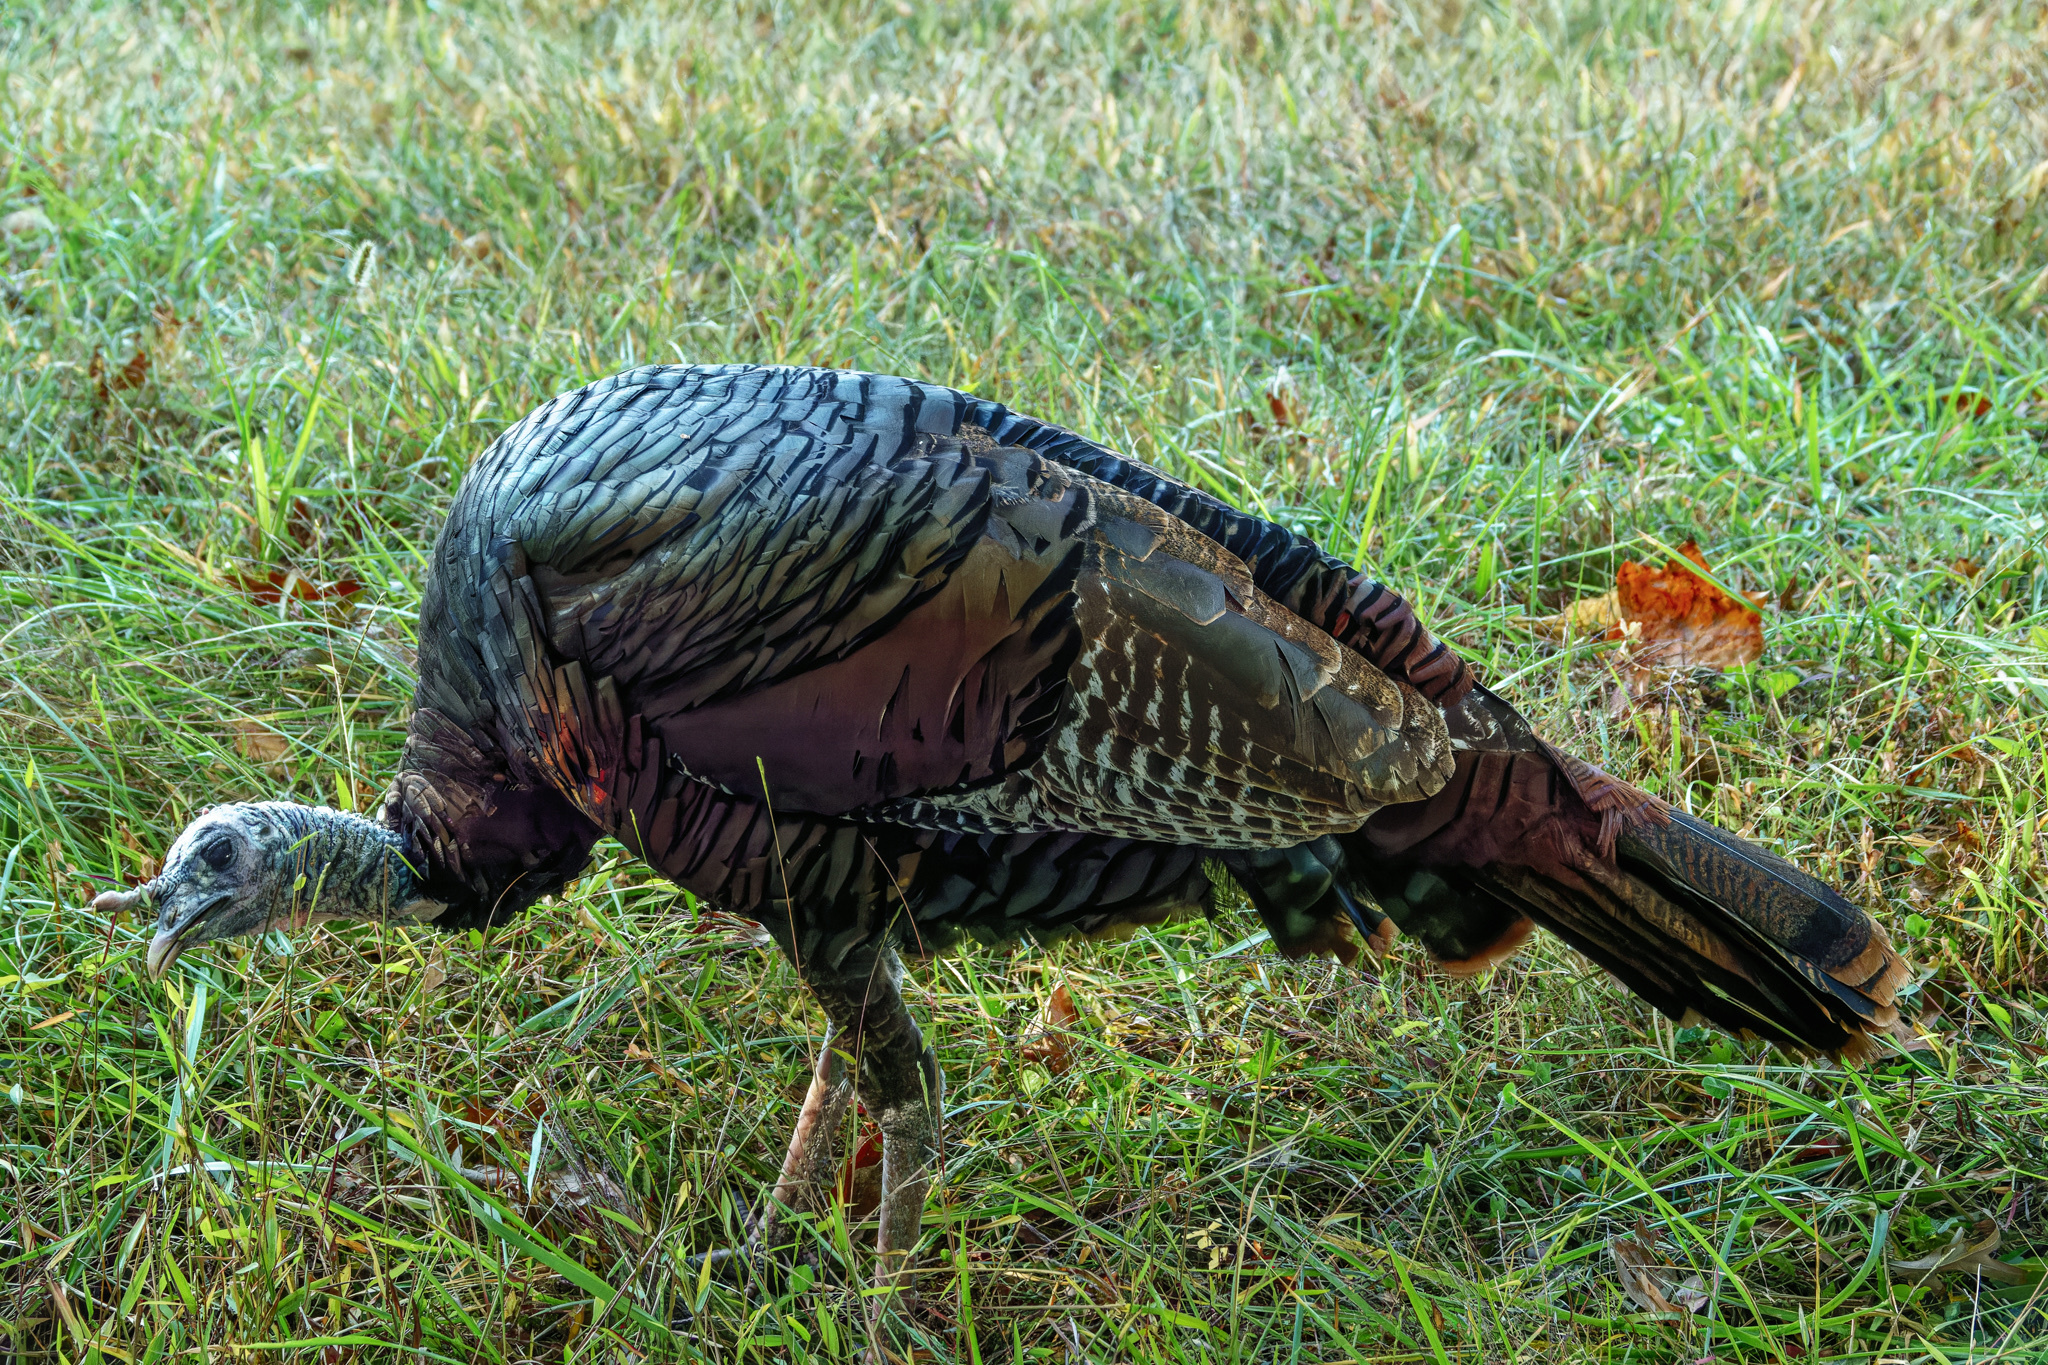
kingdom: Animalia
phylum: Chordata
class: Aves
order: Galliformes
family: Phasianidae
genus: Meleagris
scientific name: Meleagris gallopavo
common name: Wild turkey
